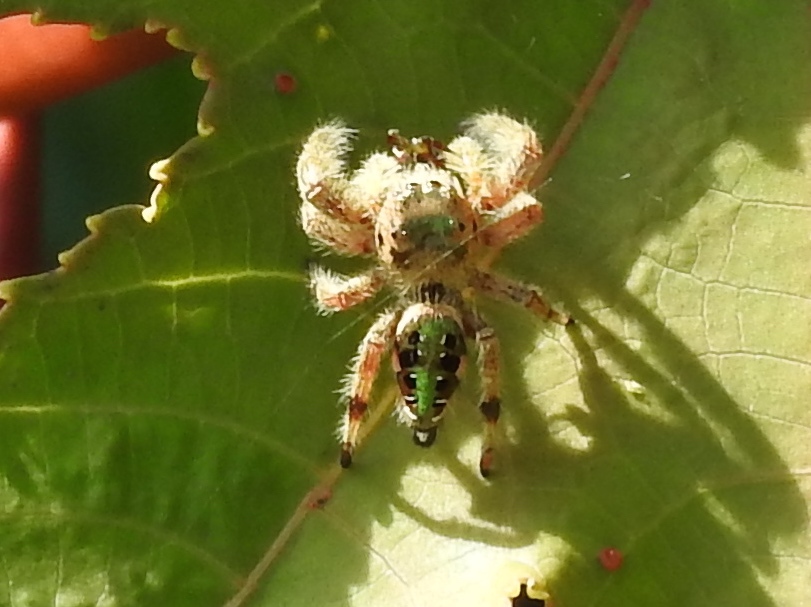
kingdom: Animalia
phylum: Arthropoda
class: Arachnida
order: Araneae
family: Salticidae
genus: Paraphidippus
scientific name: Paraphidippus aurantius
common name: Jumping spiders
